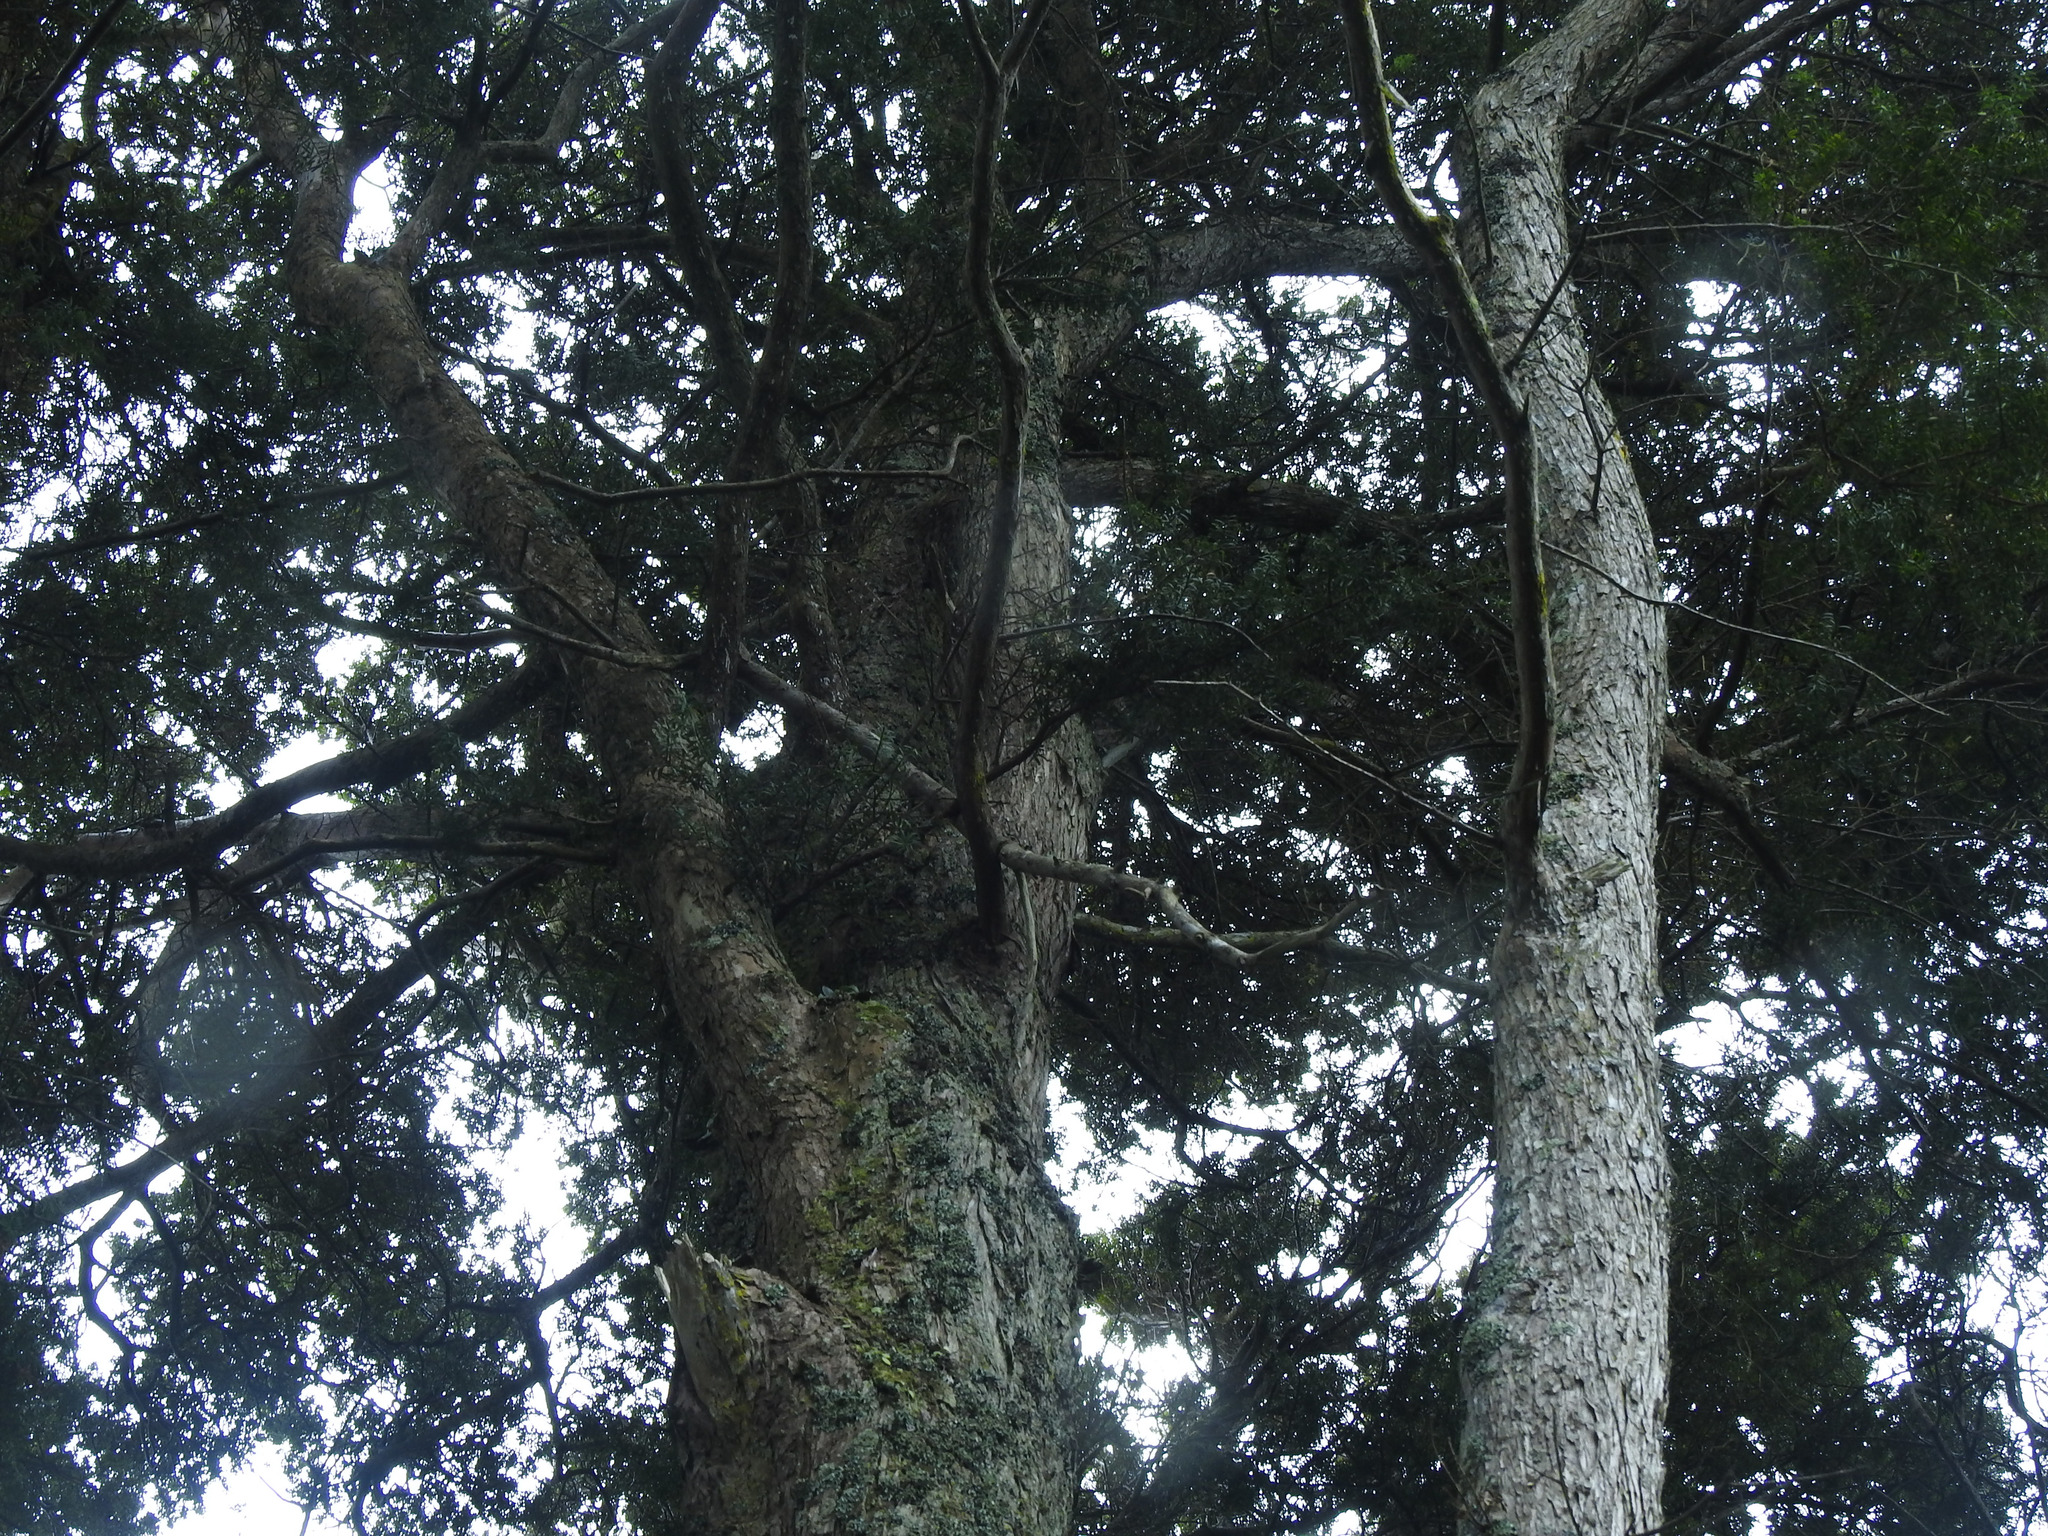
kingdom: Plantae
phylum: Tracheophyta
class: Pinopsida
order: Pinales
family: Podocarpaceae
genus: Podocarpus
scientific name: Podocarpus totara
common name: Totara
